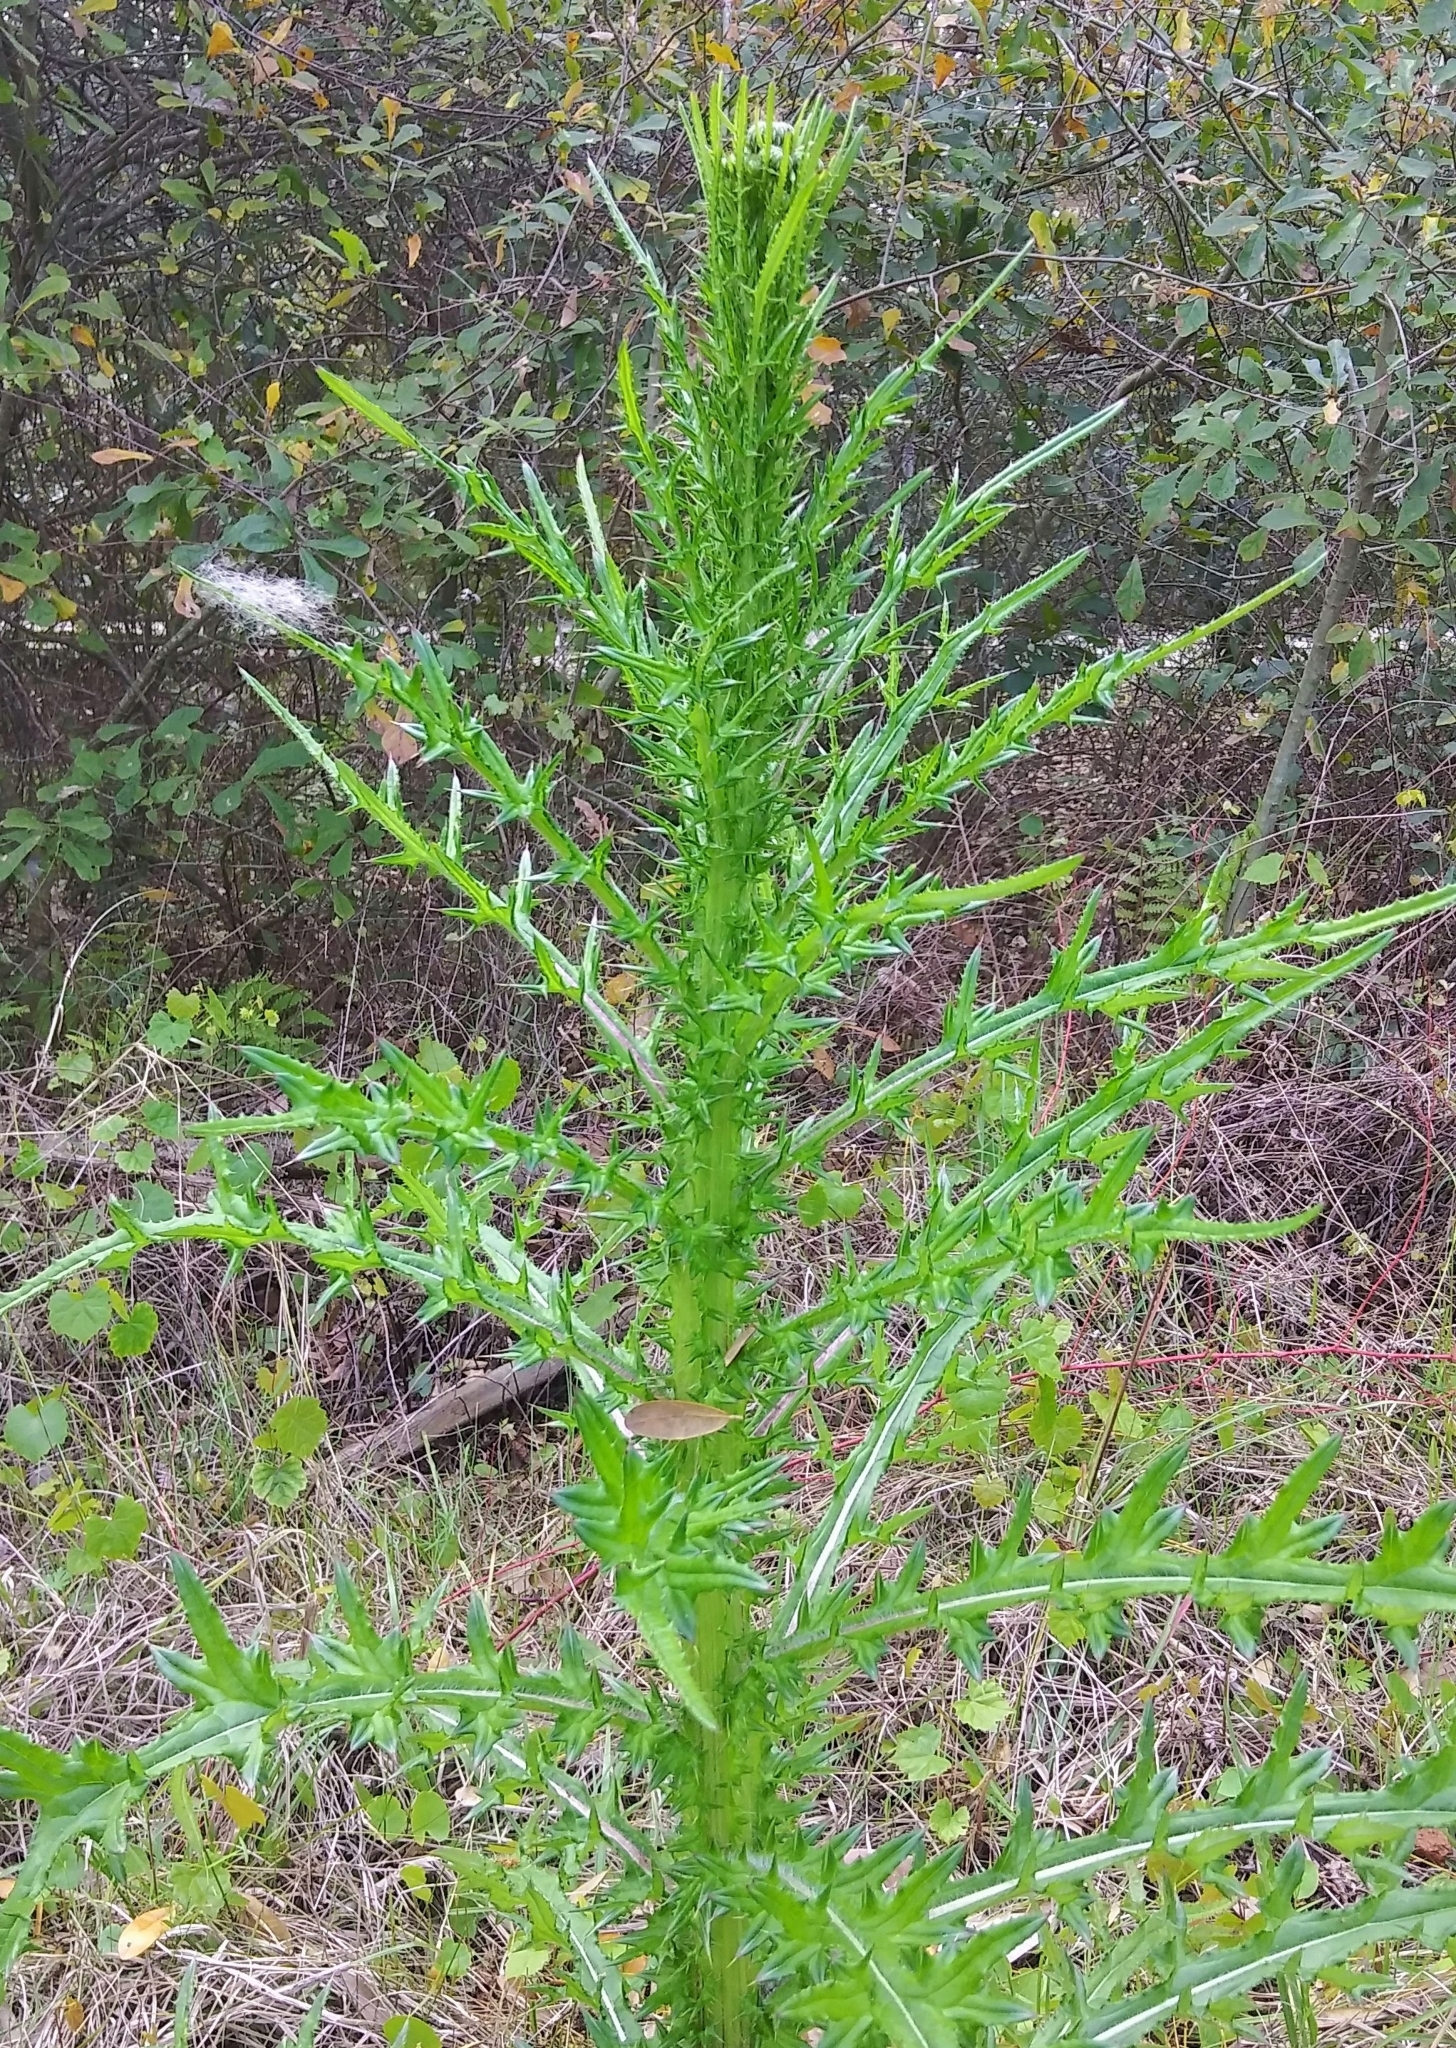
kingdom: Plantae
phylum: Tracheophyta
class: Magnoliopsida
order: Asterales
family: Asteraceae
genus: Cirsium
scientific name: Cirsium nuttalii
